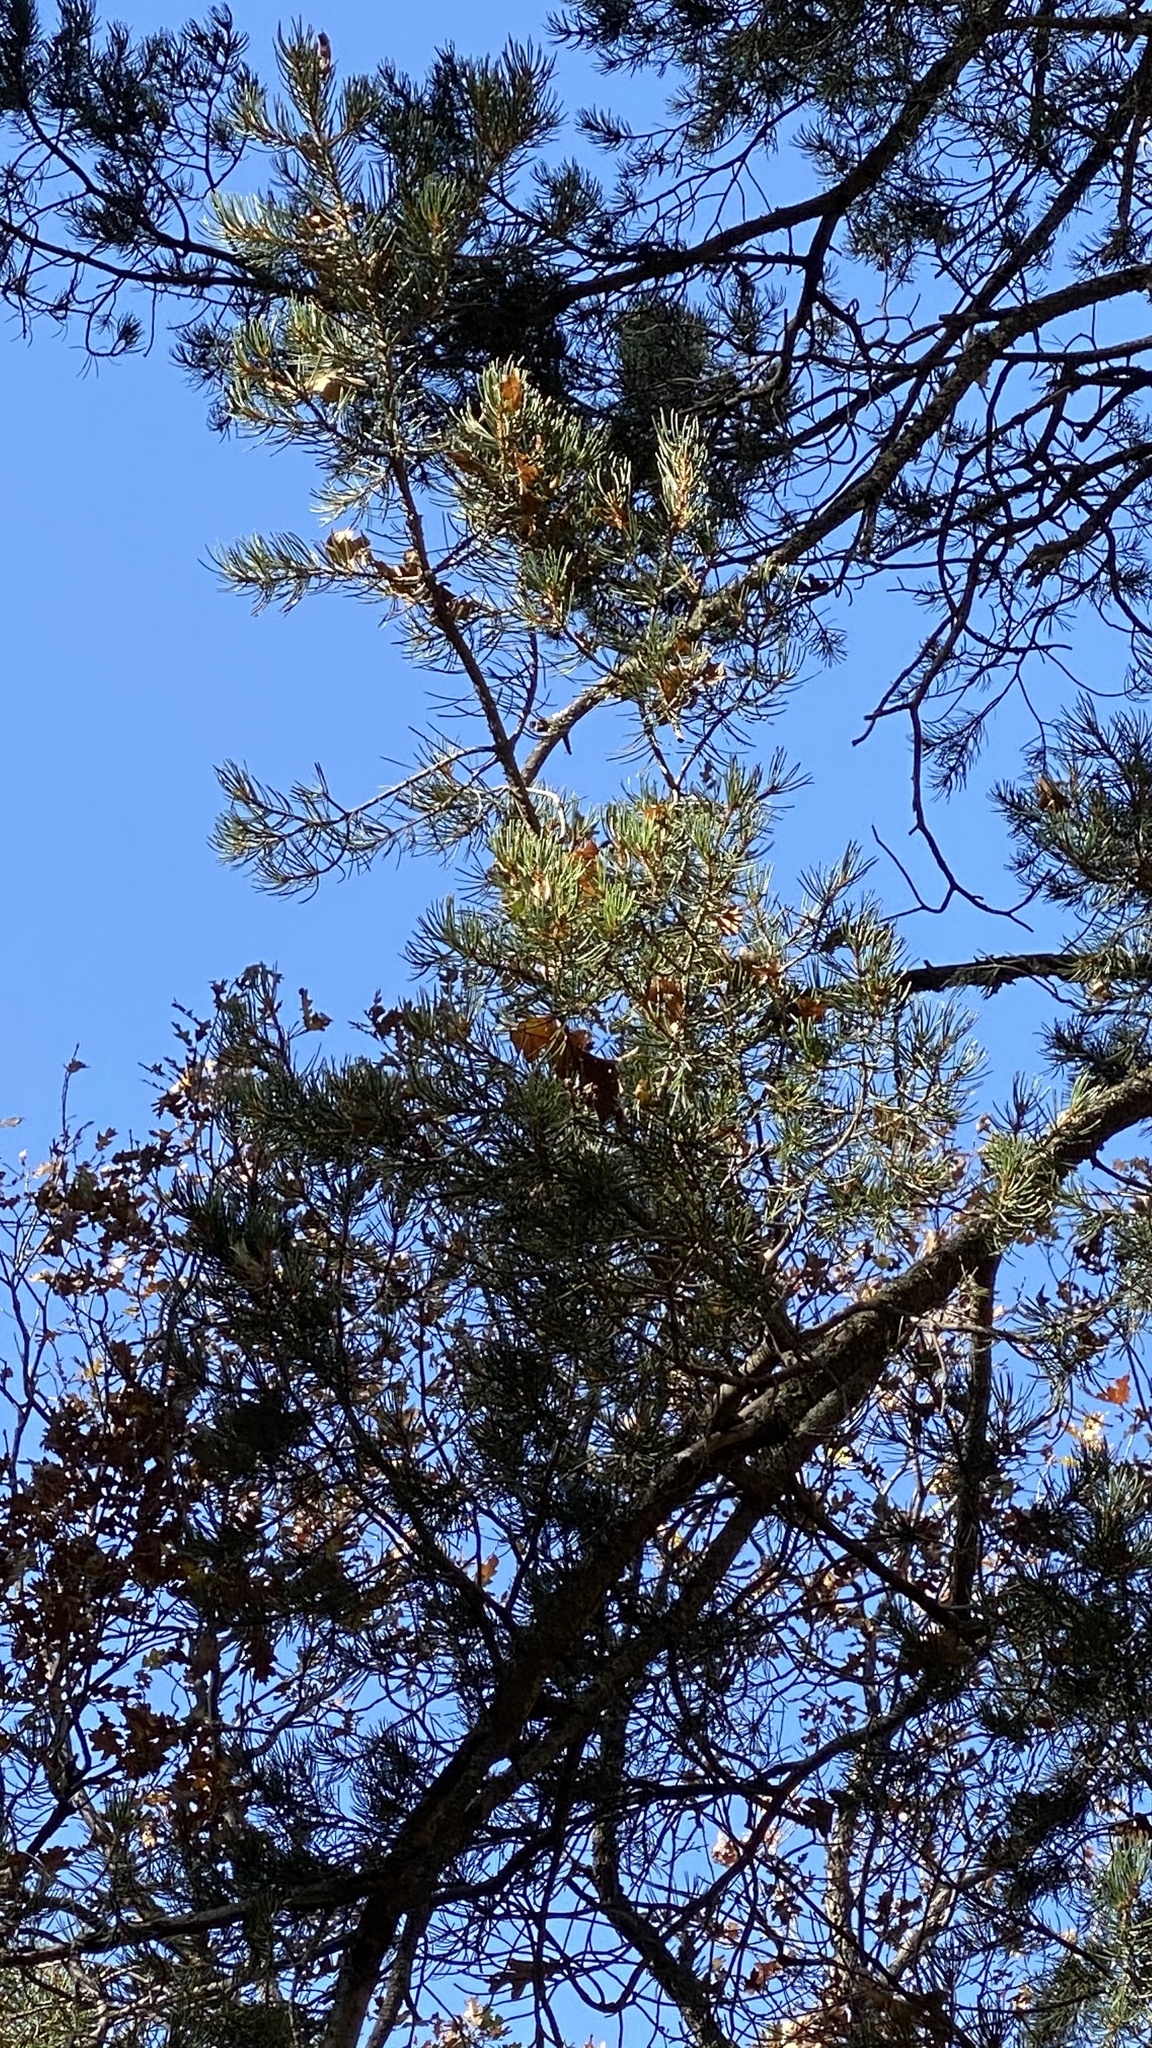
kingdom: Plantae
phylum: Tracheophyta
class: Pinopsida
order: Pinales
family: Pinaceae
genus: Pinus
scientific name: Pinus edulis
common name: Colorado pinyon
